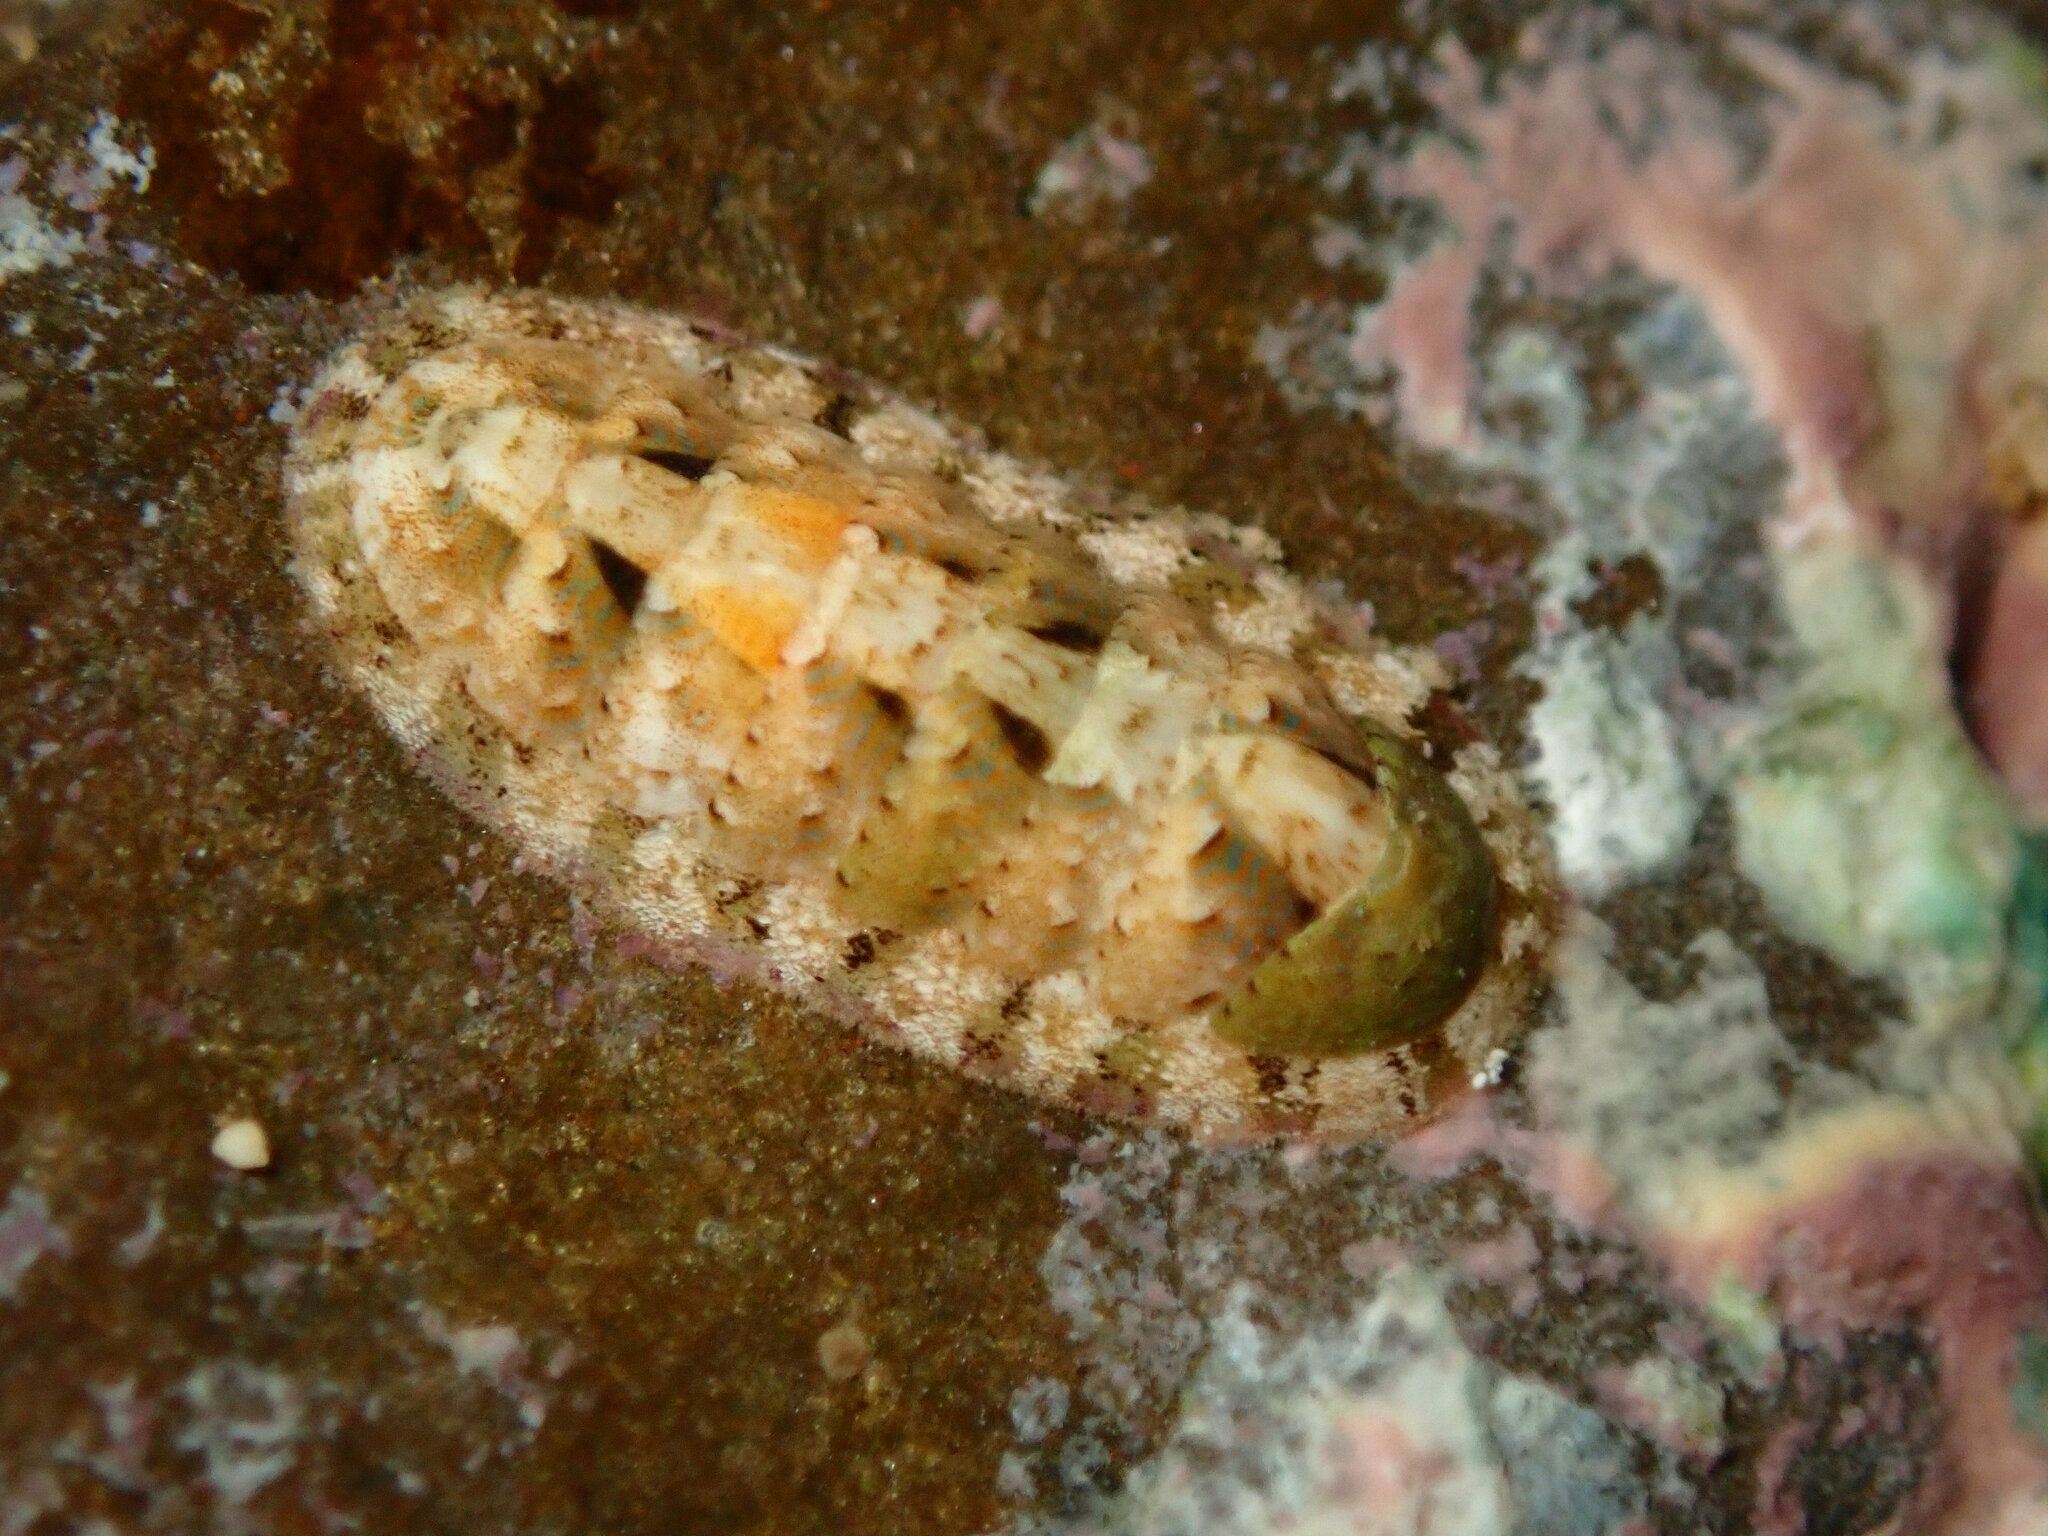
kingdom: Animalia
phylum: Mollusca
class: Polyplacophora
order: Chitonida
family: Ischnochitonidae
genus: Stenoplax
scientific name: Stenoplax petaloides
